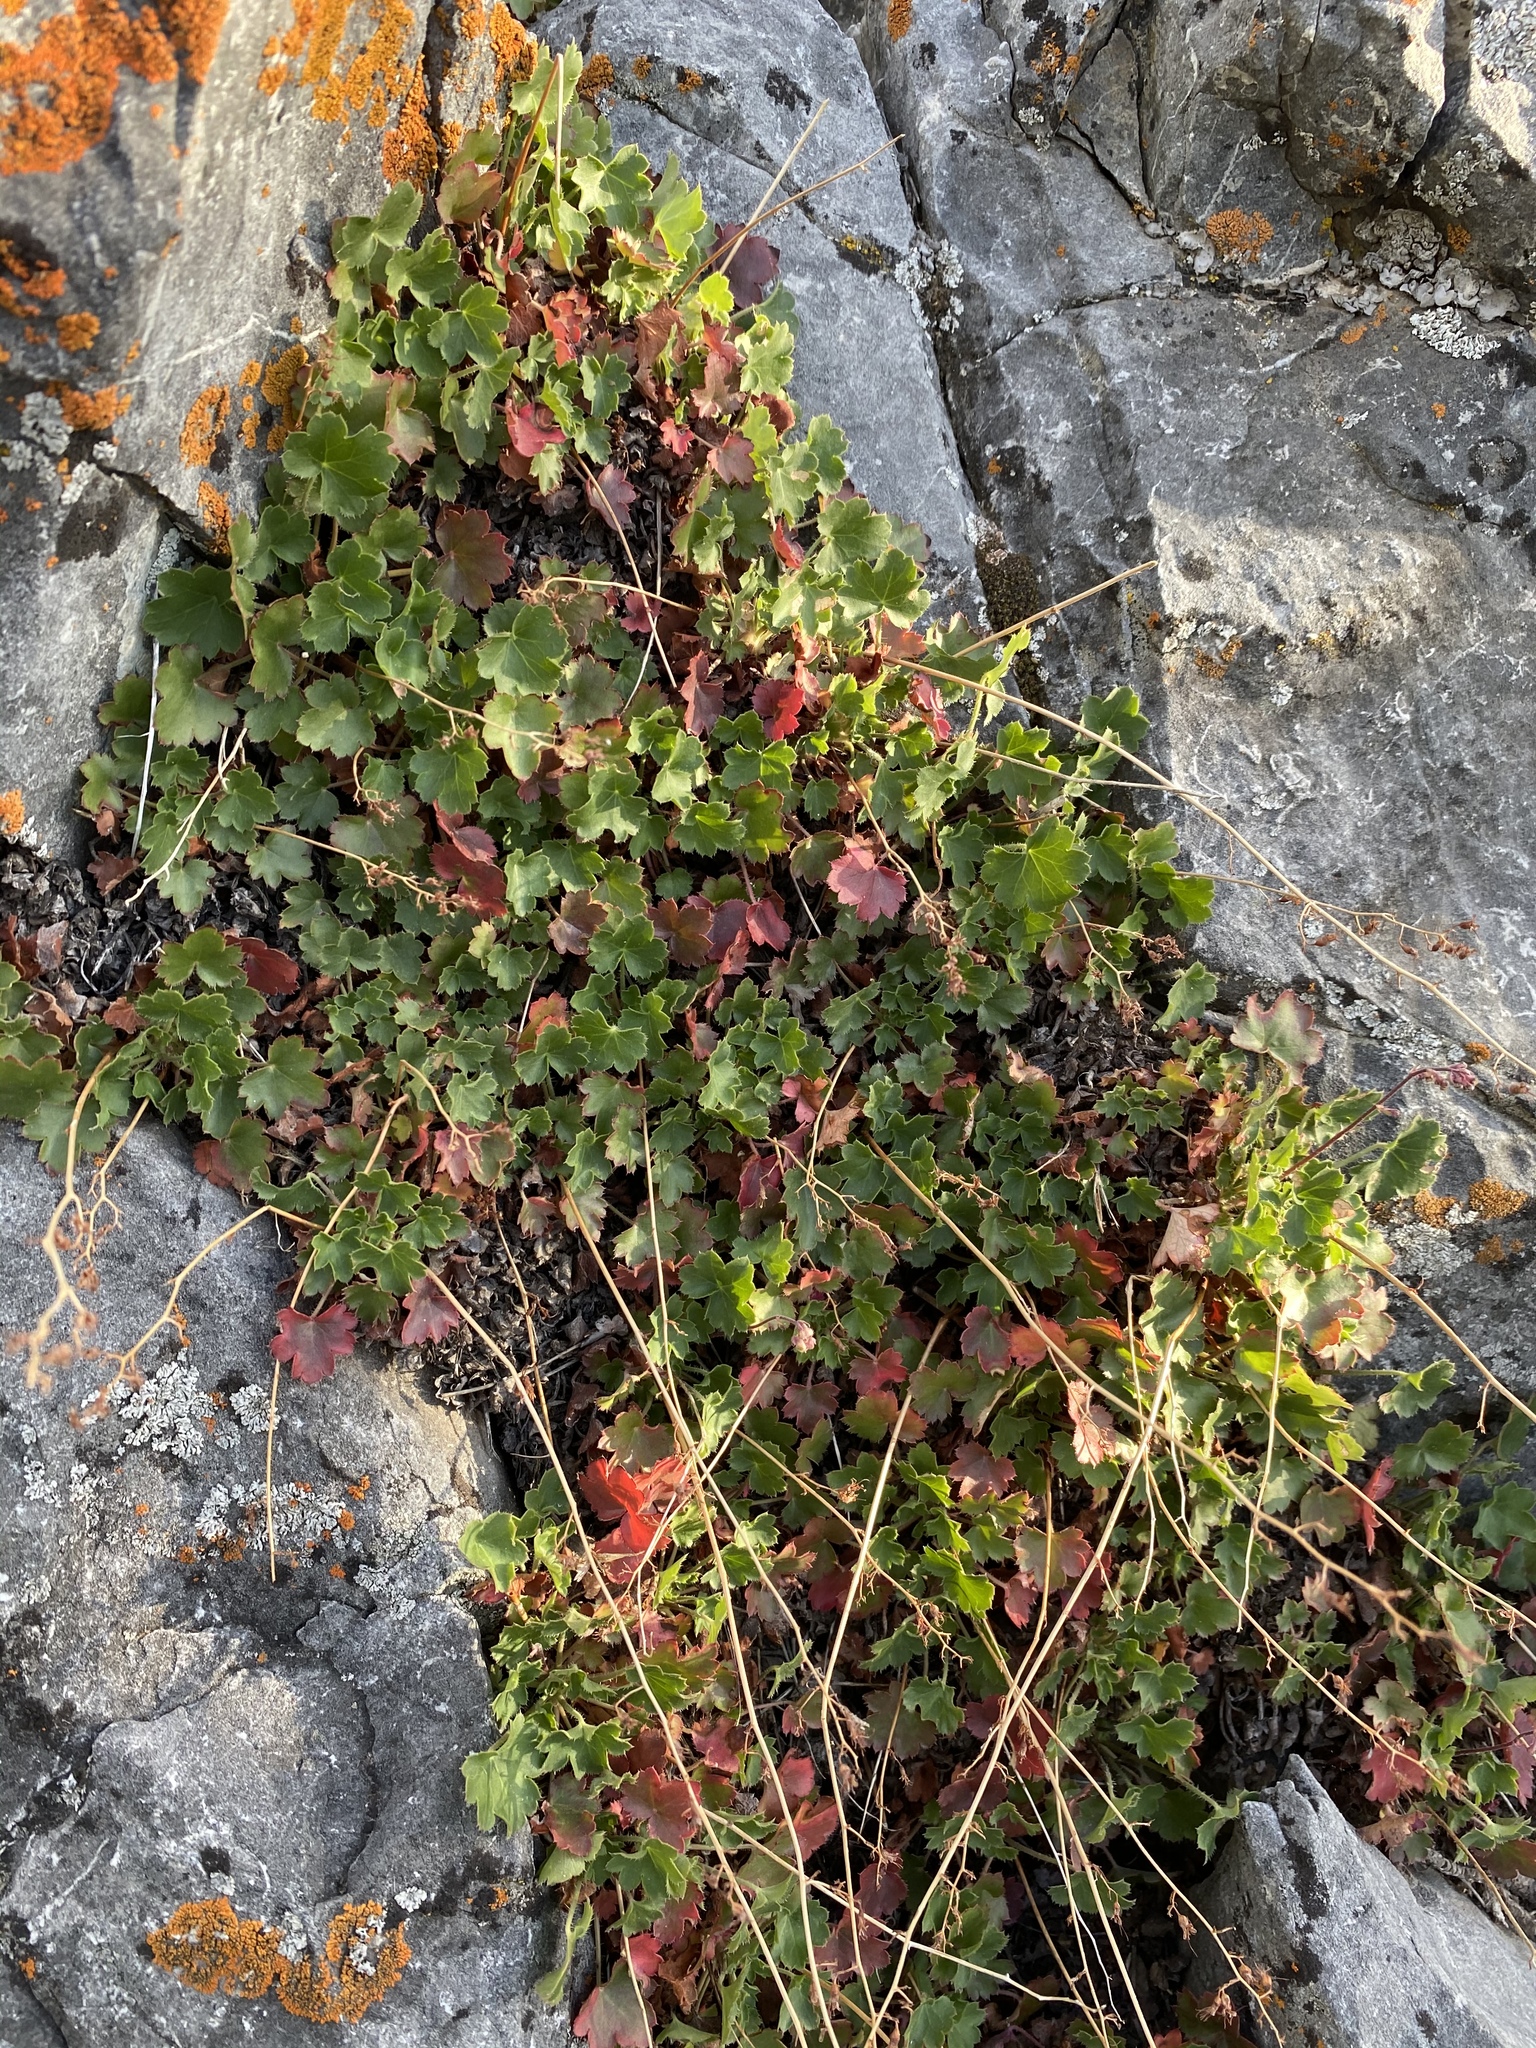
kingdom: Plantae
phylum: Tracheophyta
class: Magnoliopsida
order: Saxifragales
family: Saxifragaceae
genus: Heuchera
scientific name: Heuchera rubescens
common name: Jack-o'the-rocks
